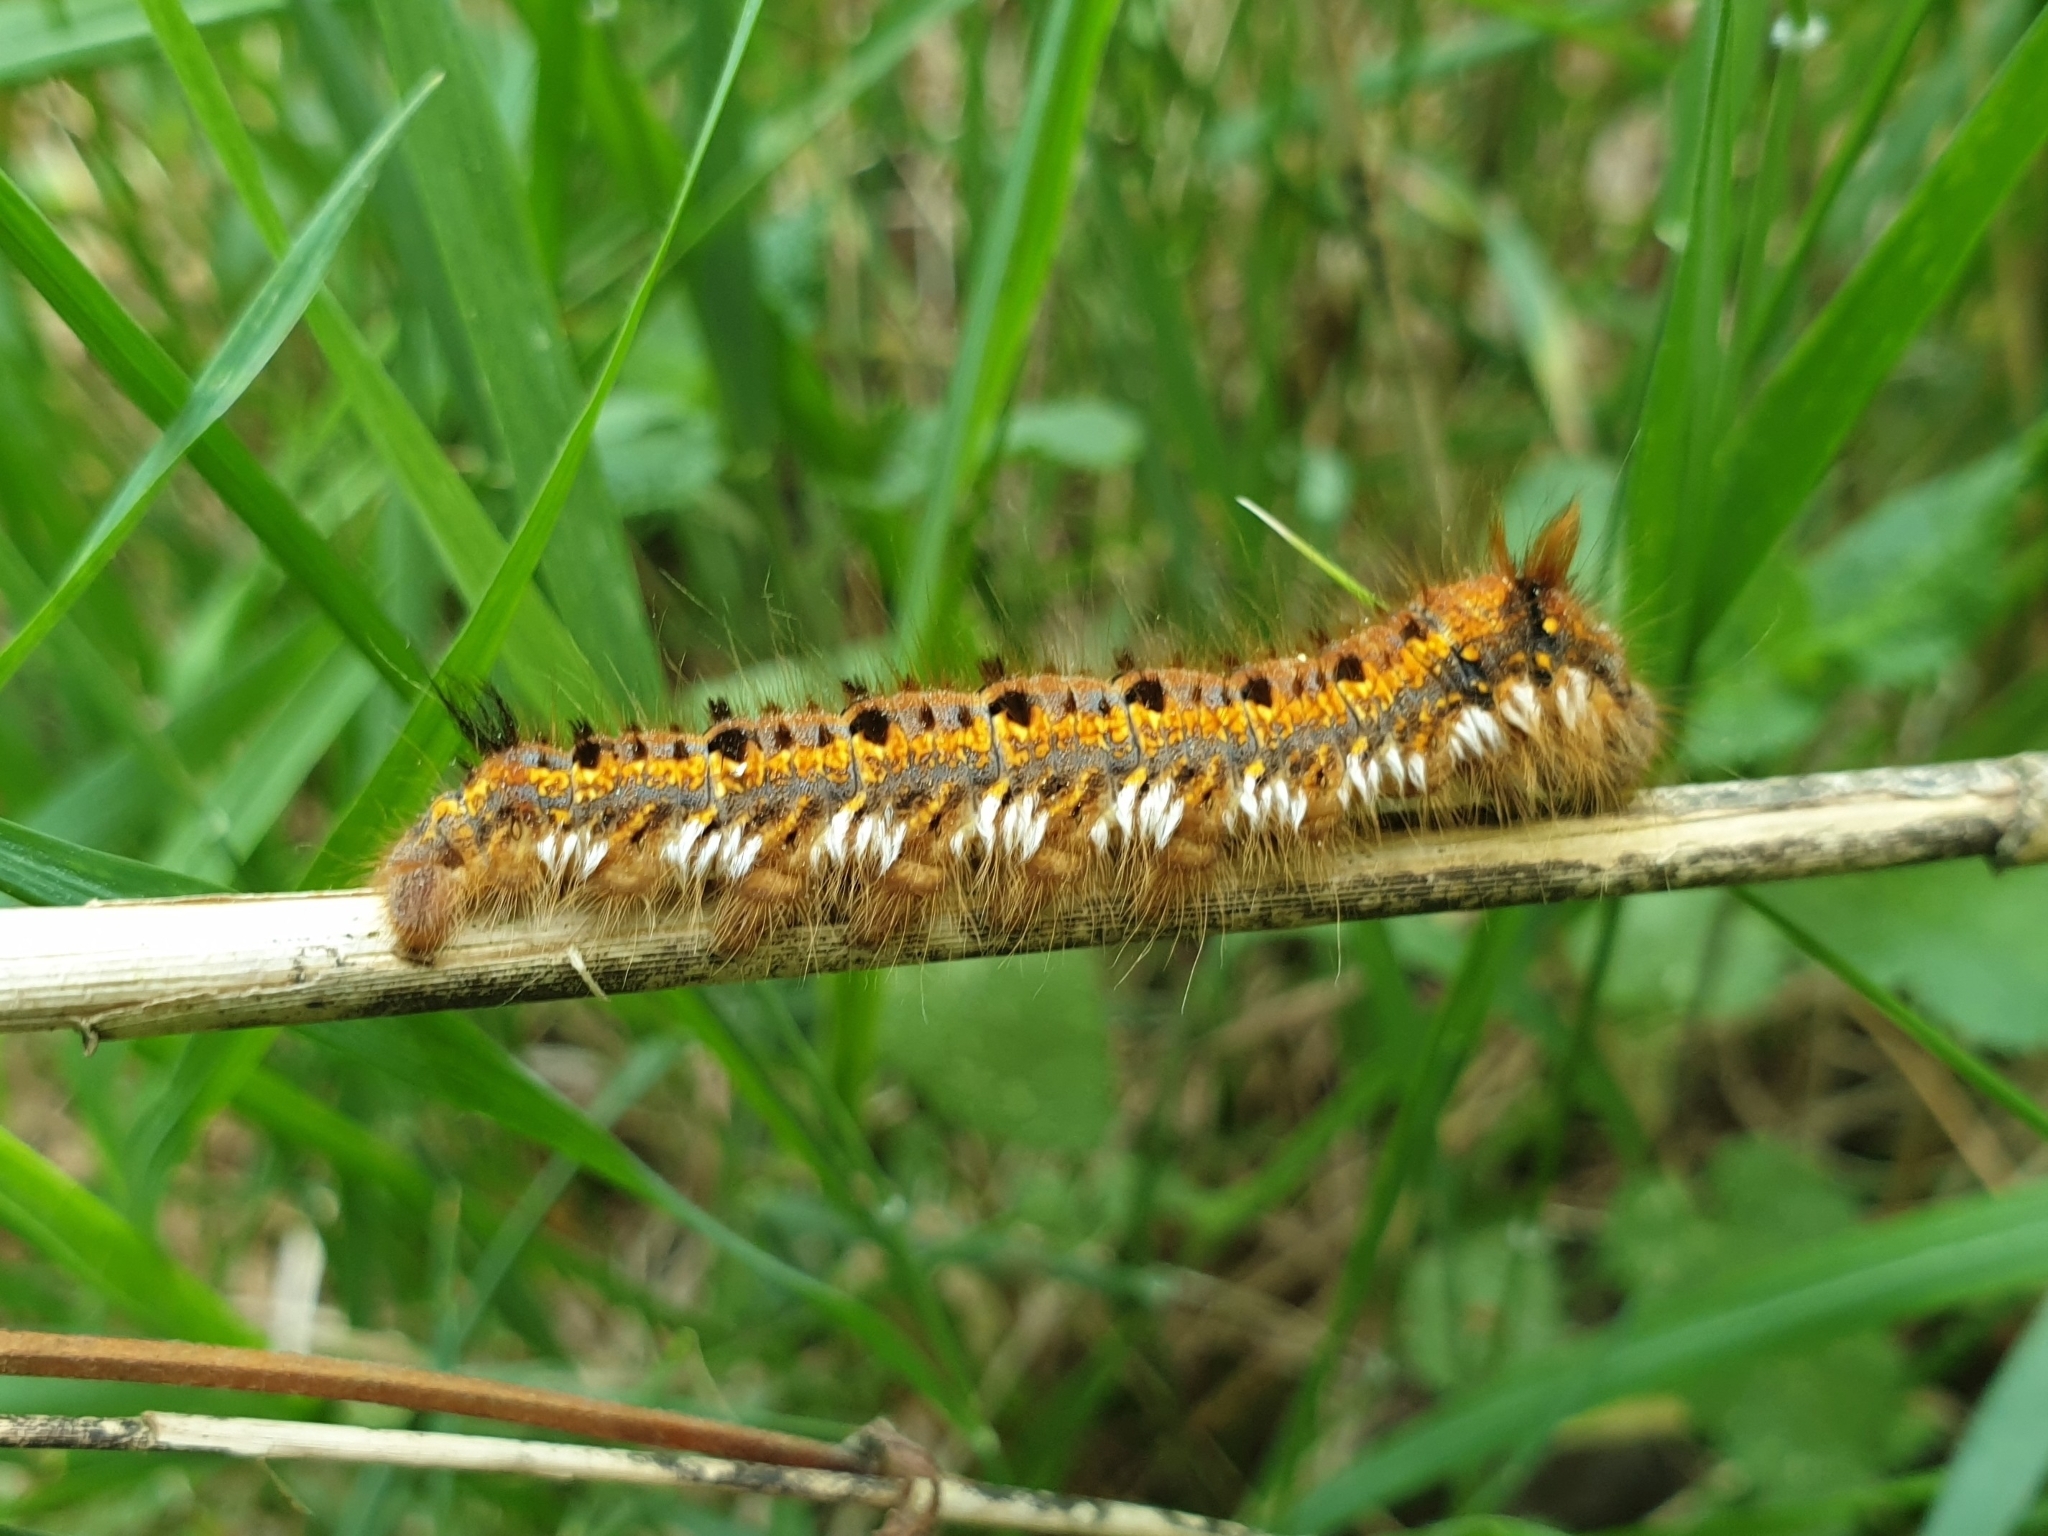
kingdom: Animalia
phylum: Arthropoda
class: Insecta
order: Lepidoptera
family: Lasiocampidae
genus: Euthrix
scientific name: Euthrix potatoria
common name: Drinker
